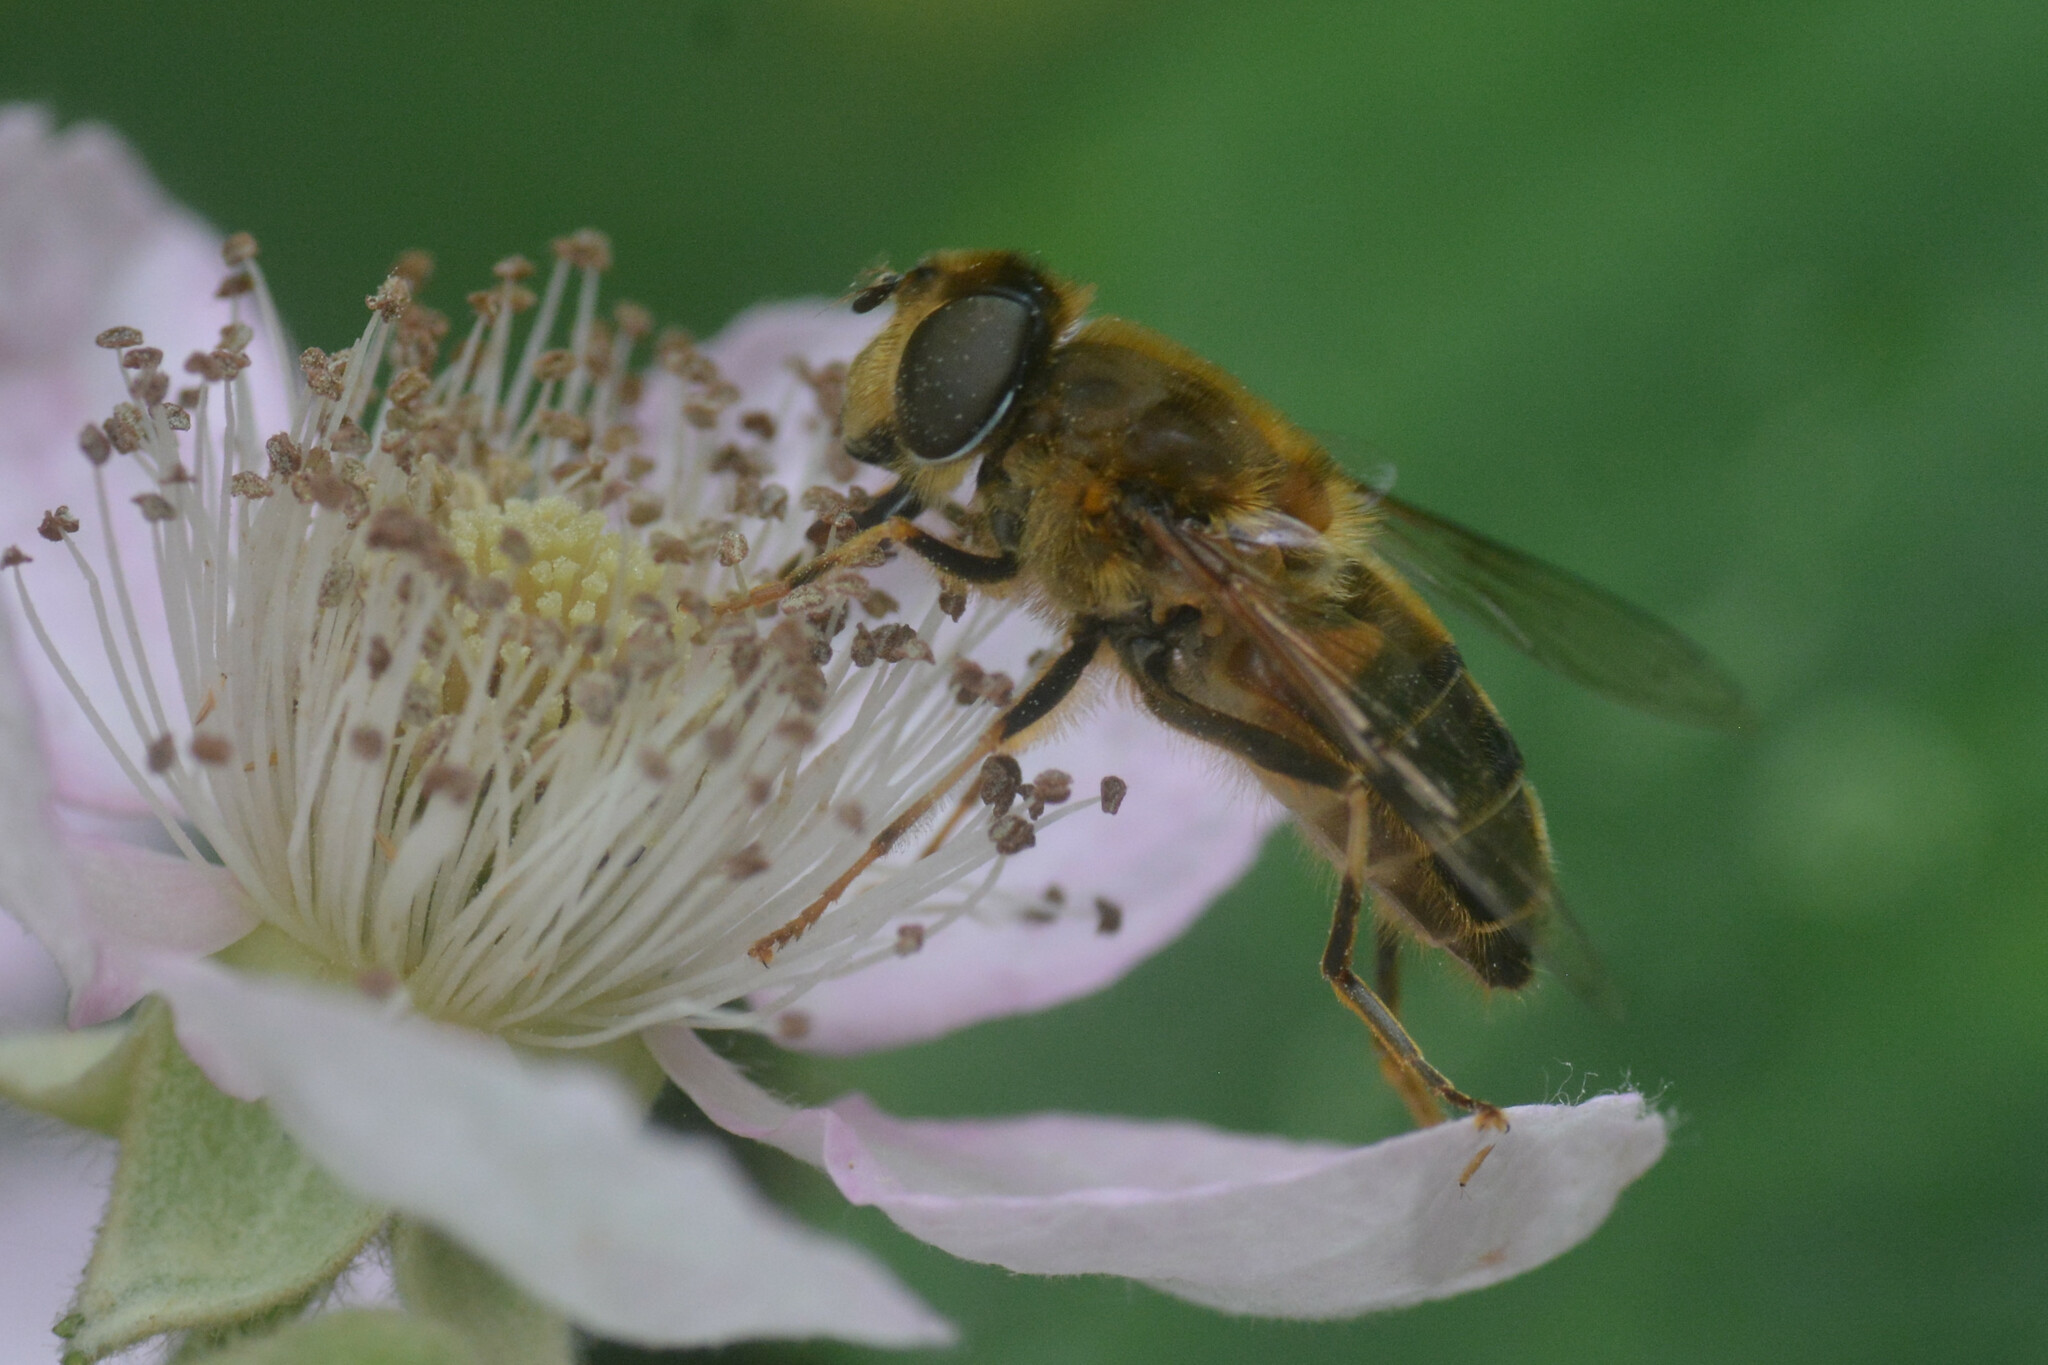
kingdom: Animalia
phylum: Arthropoda
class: Insecta
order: Diptera
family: Syrphidae
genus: Eristalis
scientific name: Eristalis pertinax
